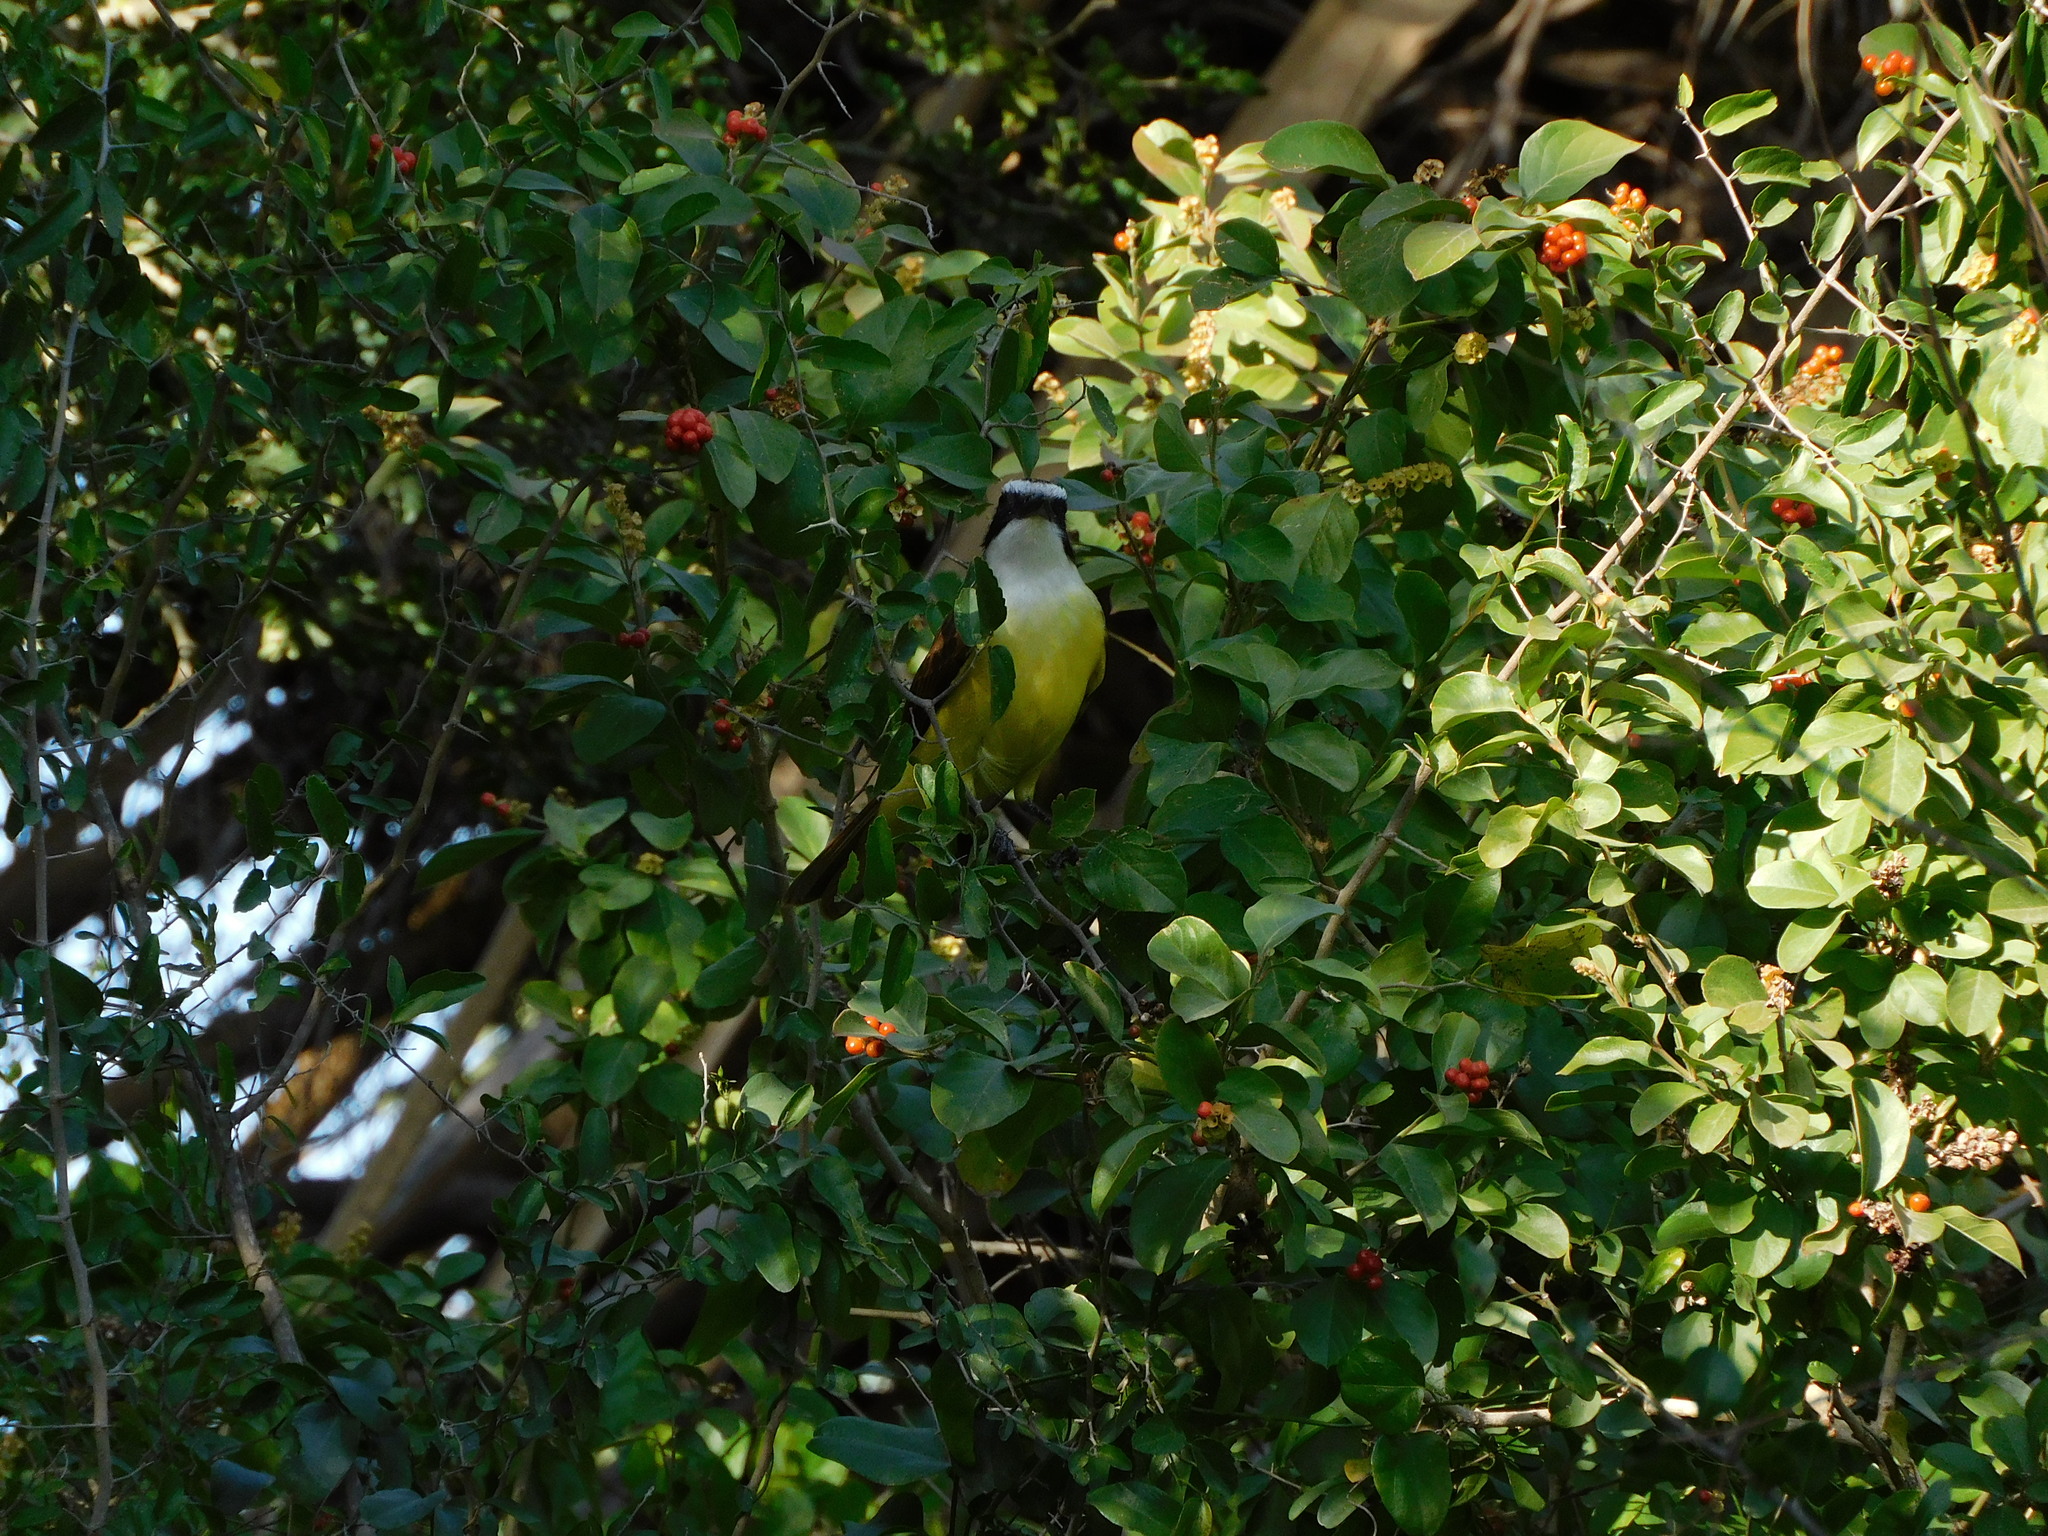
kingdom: Animalia
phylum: Chordata
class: Aves
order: Passeriformes
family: Tyrannidae
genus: Pitangus
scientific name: Pitangus sulphuratus
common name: Great kiskadee
